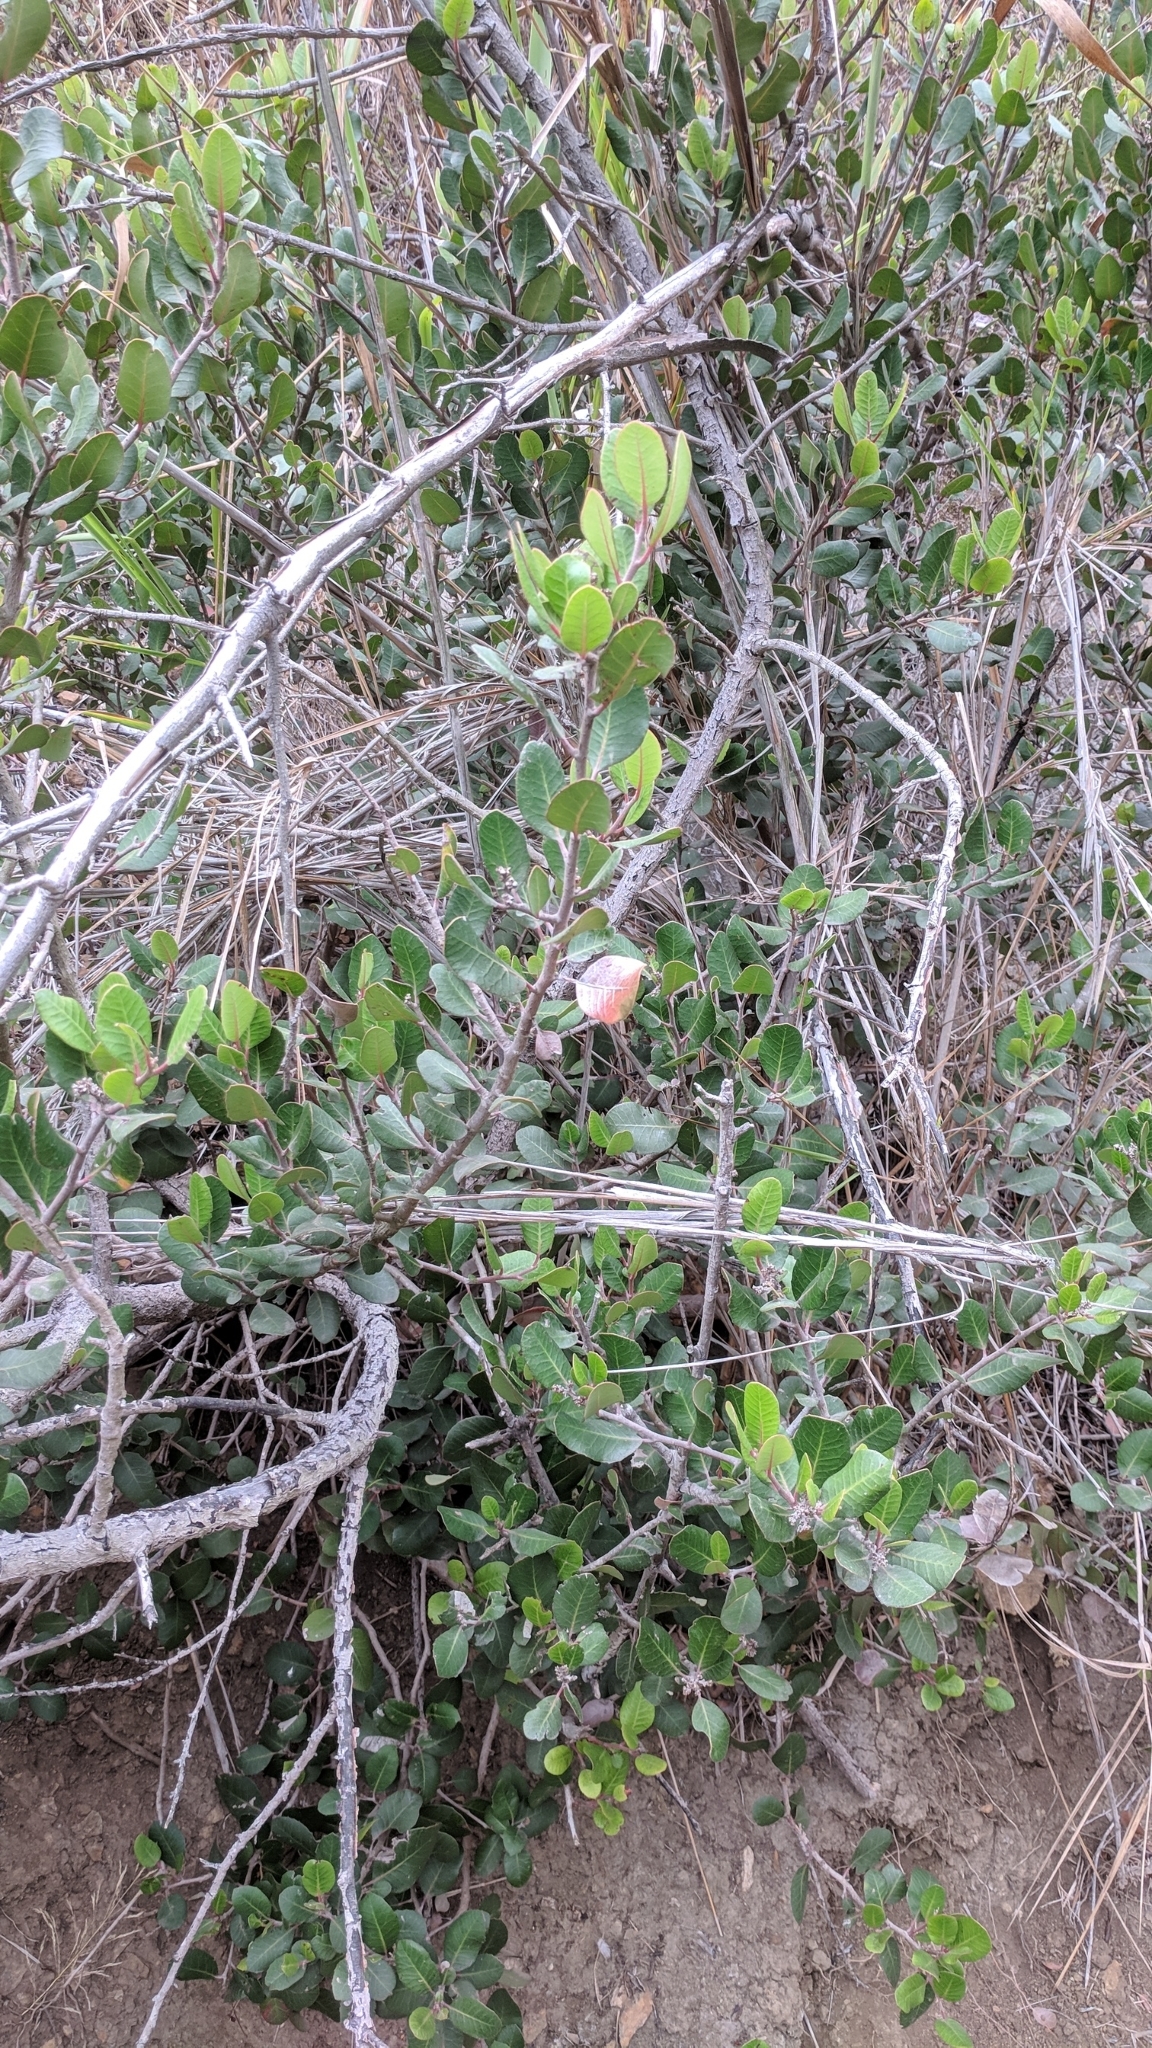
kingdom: Plantae
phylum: Tracheophyta
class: Magnoliopsida
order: Sapindales
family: Anacardiaceae
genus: Rhus
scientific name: Rhus integrifolia
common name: Lemonade sumac
